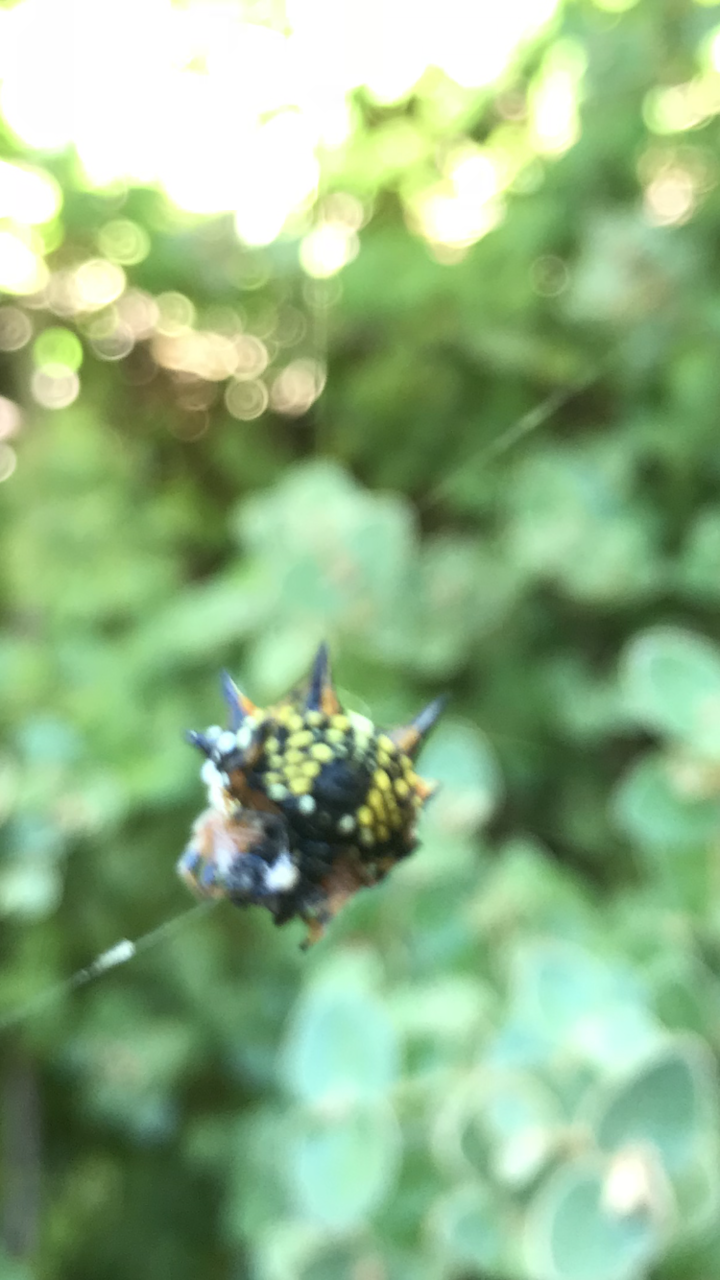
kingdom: Animalia
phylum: Arthropoda
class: Arachnida
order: Araneae
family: Araneidae
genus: Austracantha
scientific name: Austracantha minax
